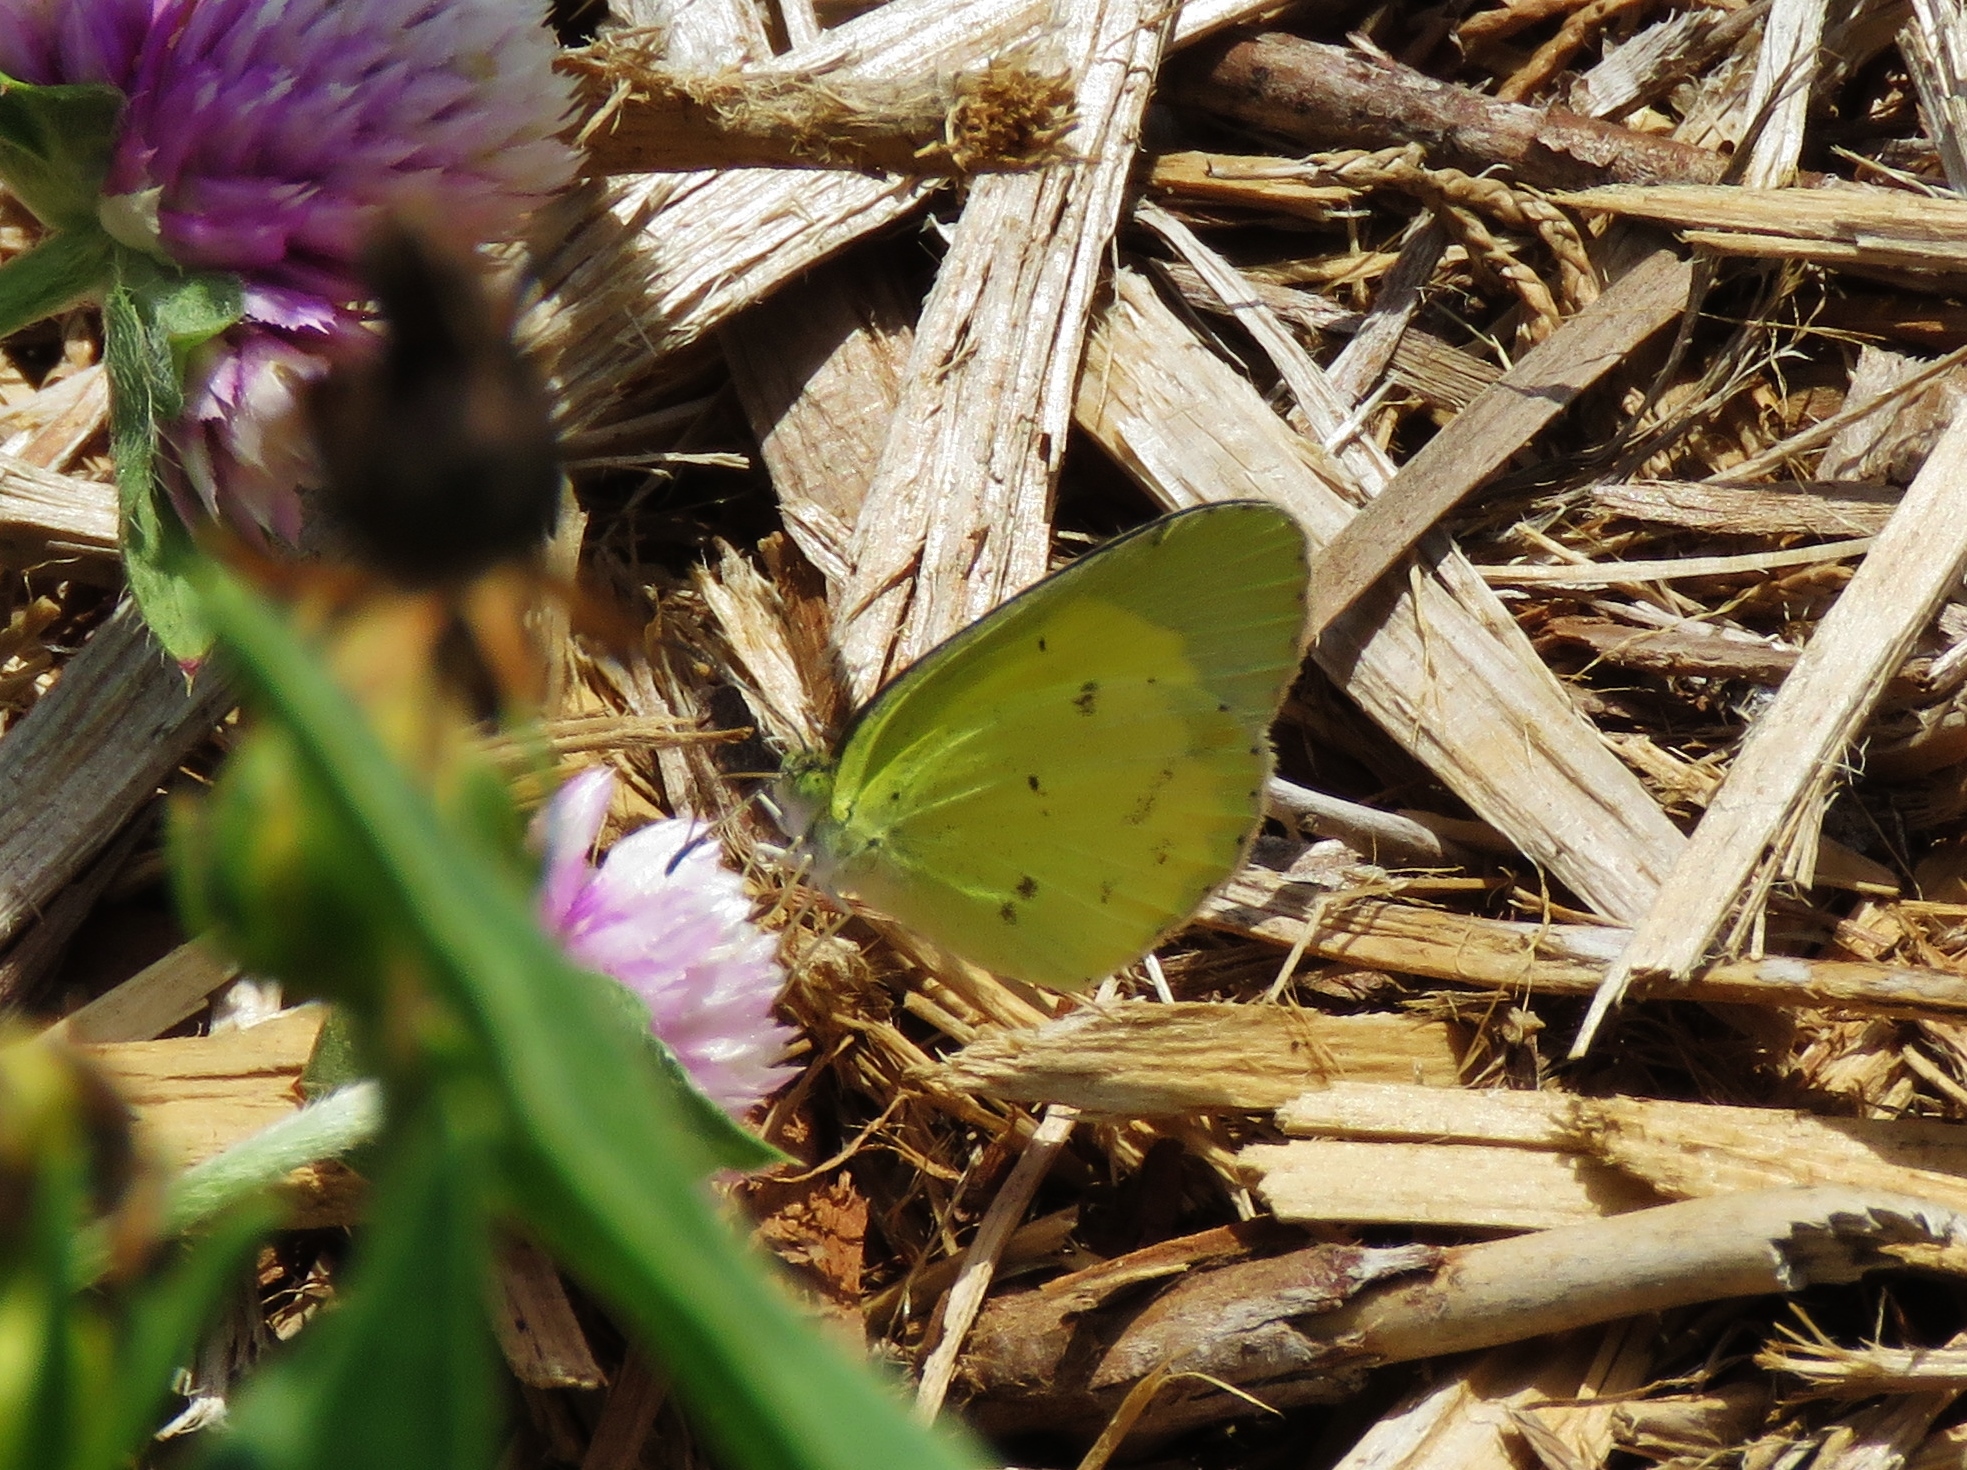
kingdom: Animalia
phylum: Arthropoda
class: Insecta
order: Lepidoptera
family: Pieridae
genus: Pyrisitia
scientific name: Pyrisitia lisa
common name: Little yellow
